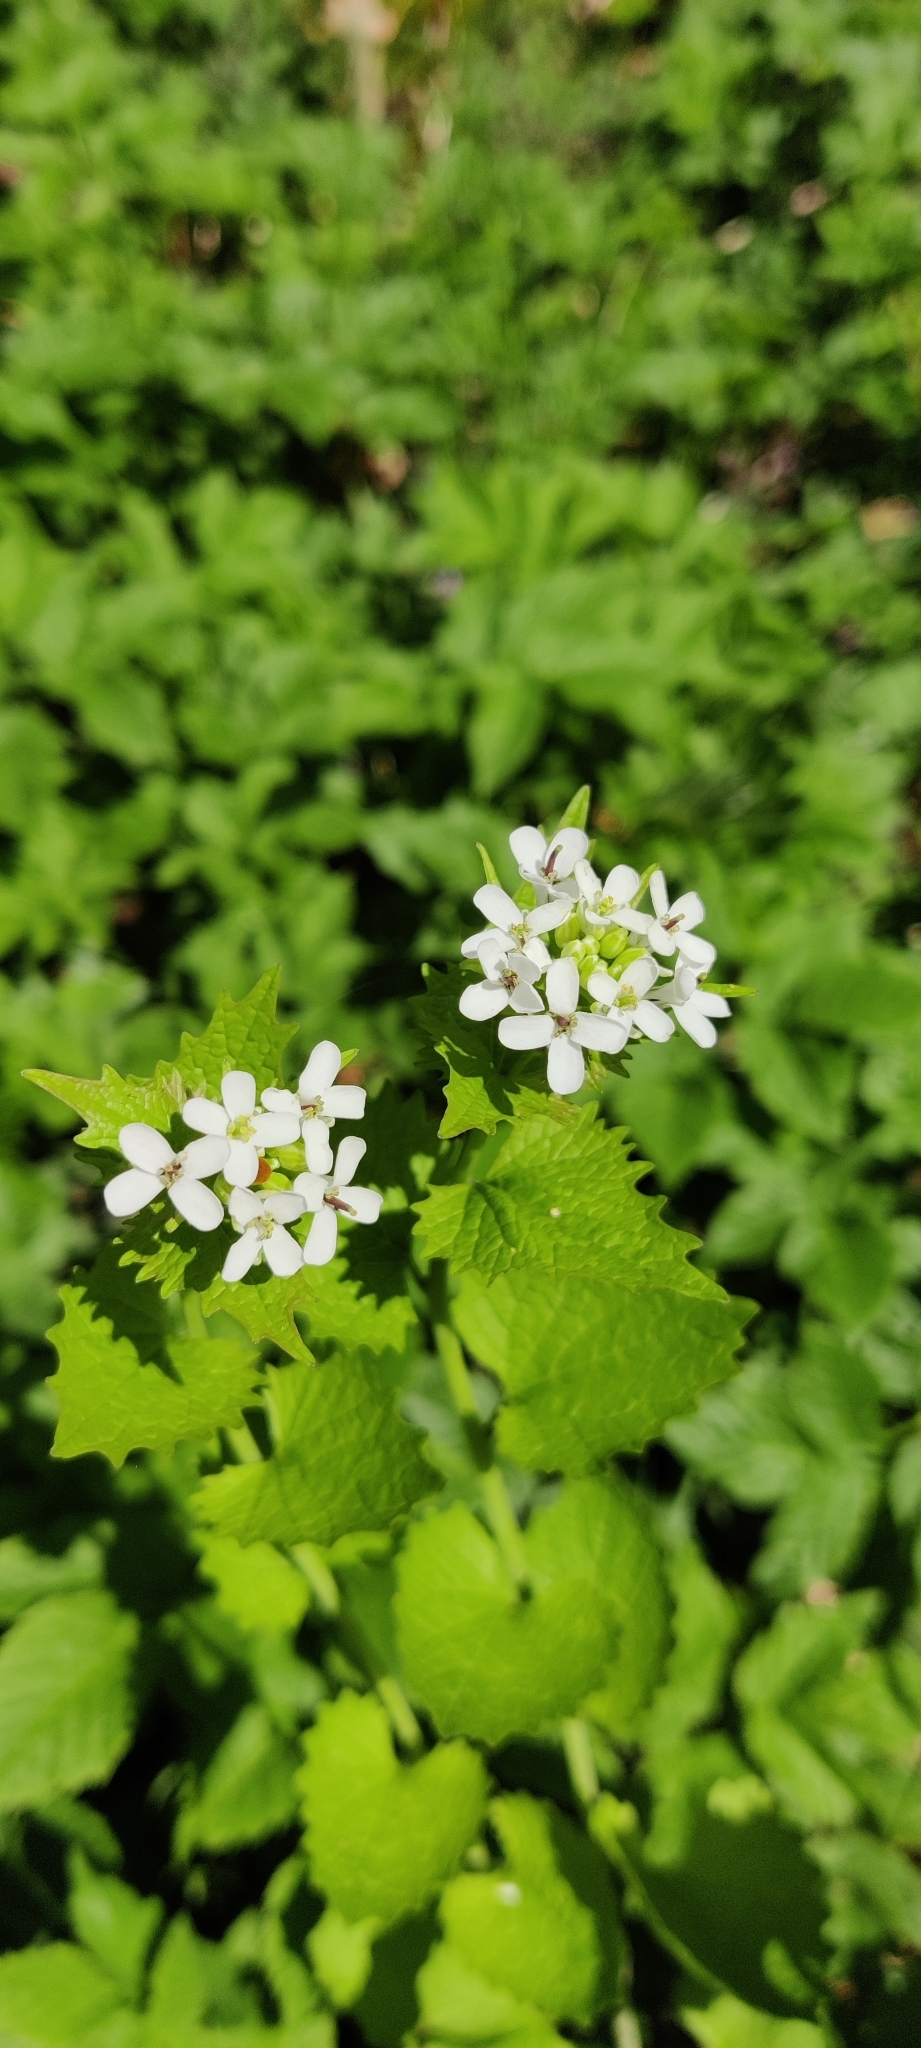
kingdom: Plantae
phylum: Tracheophyta
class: Magnoliopsida
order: Brassicales
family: Brassicaceae
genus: Alliaria
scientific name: Alliaria petiolata
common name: Garlic mustard
